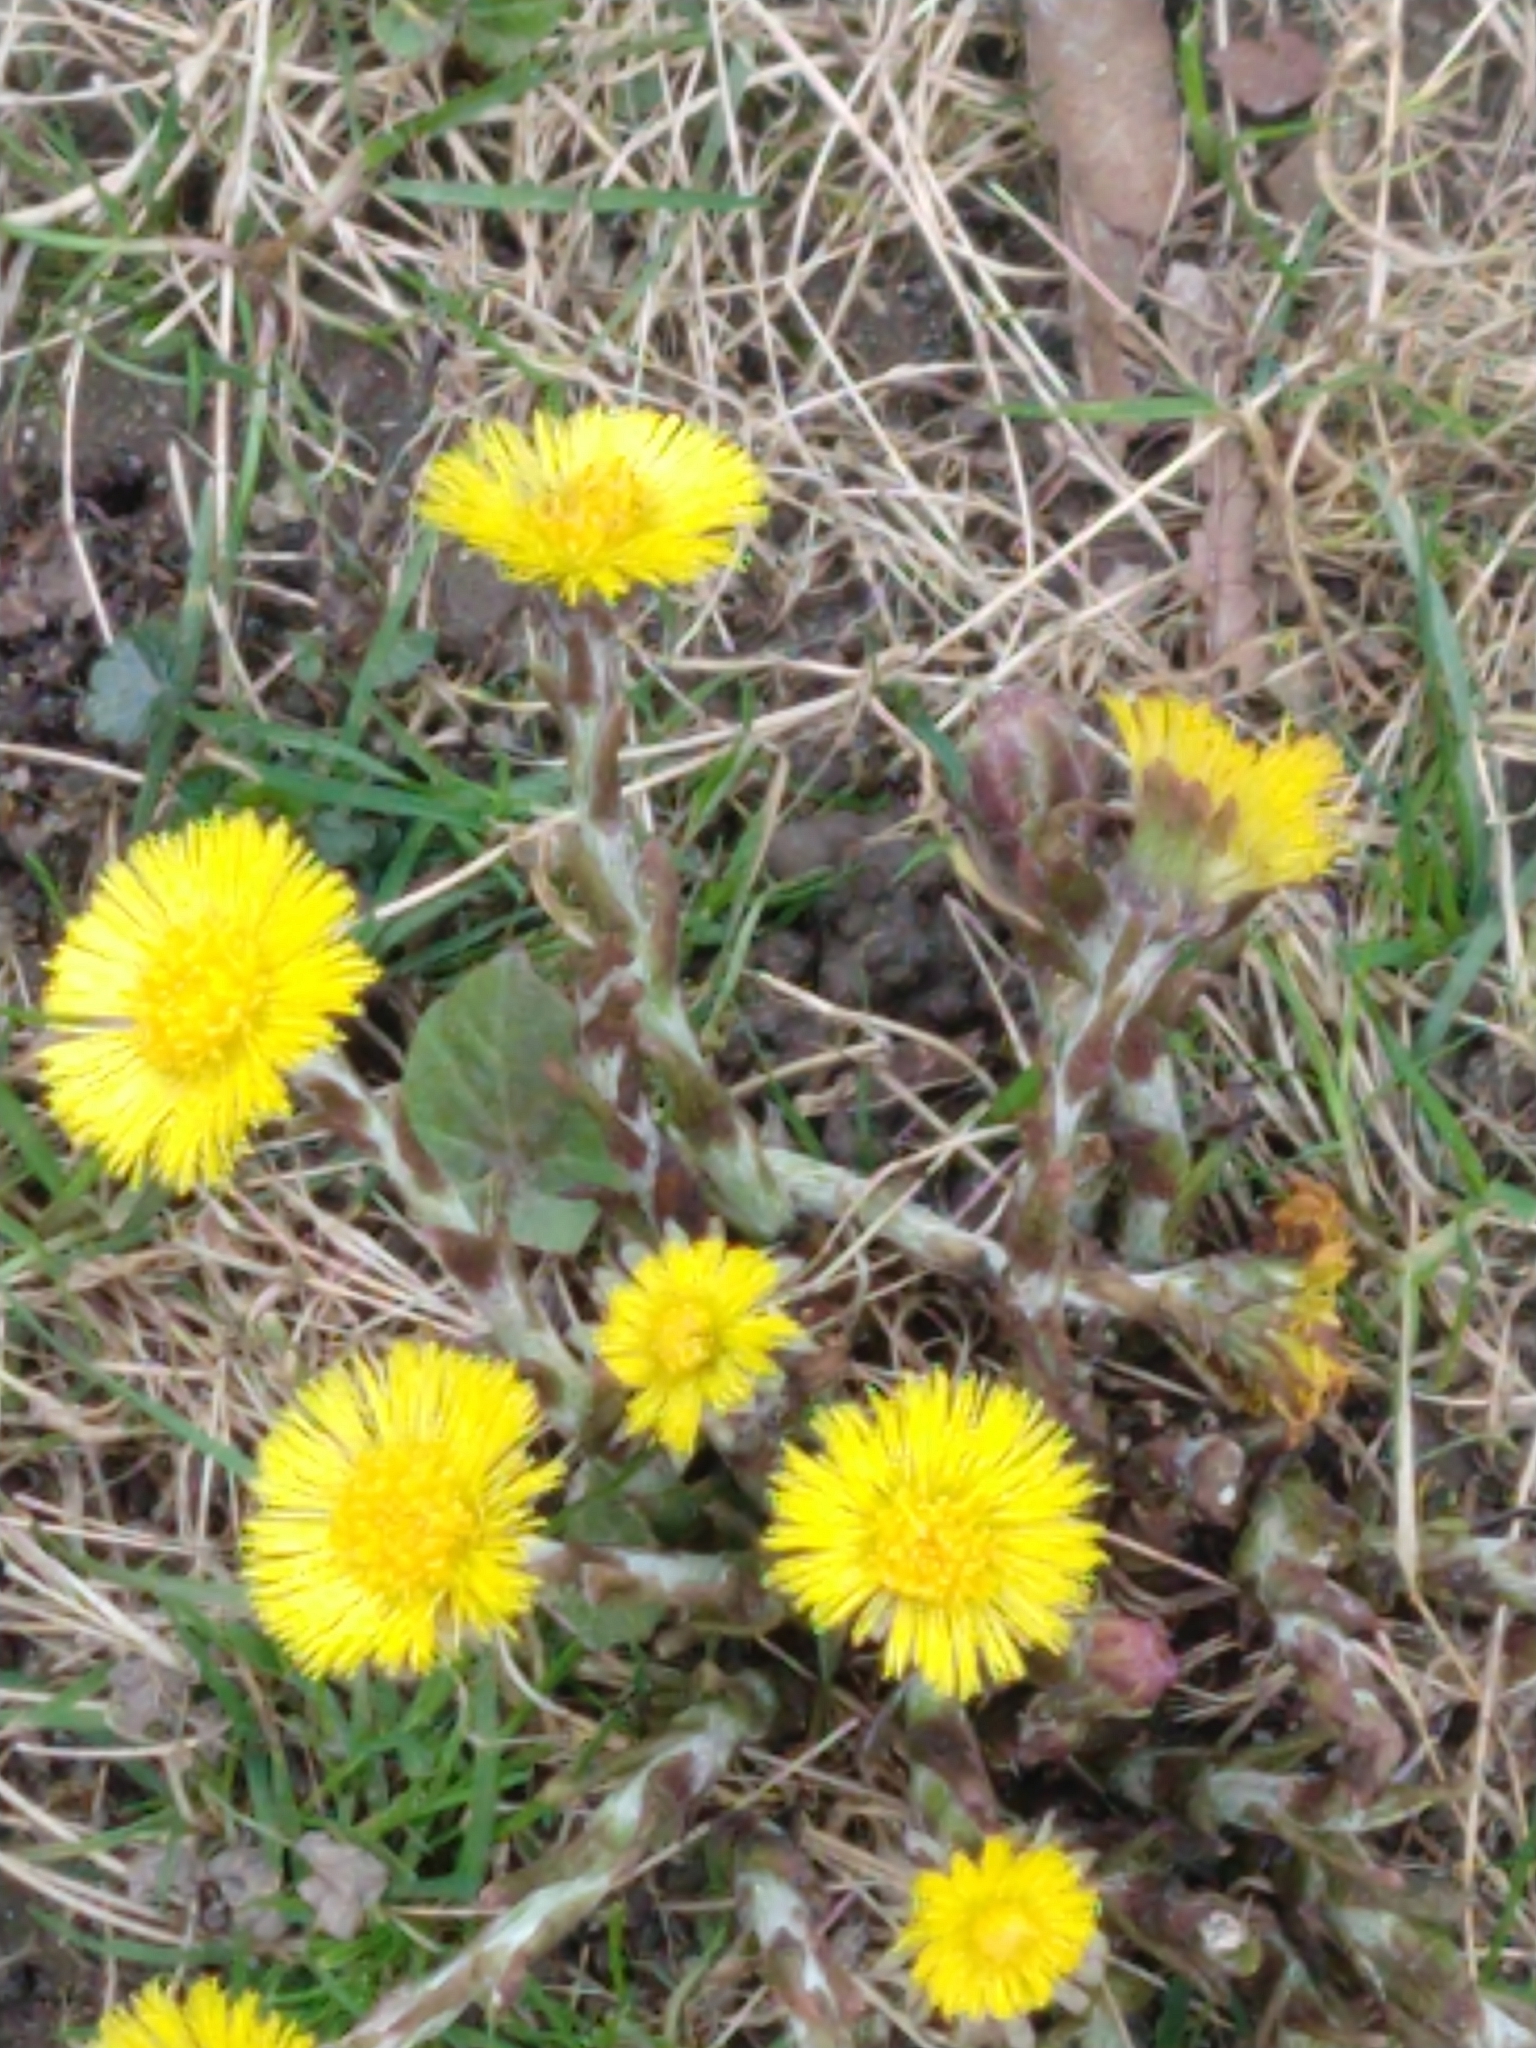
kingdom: Plantae
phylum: Tracheophyta
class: Magnoliopsida
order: Asterales
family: Asteraceae
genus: Tussilago
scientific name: Tussilago farfara
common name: Coltsfoot
